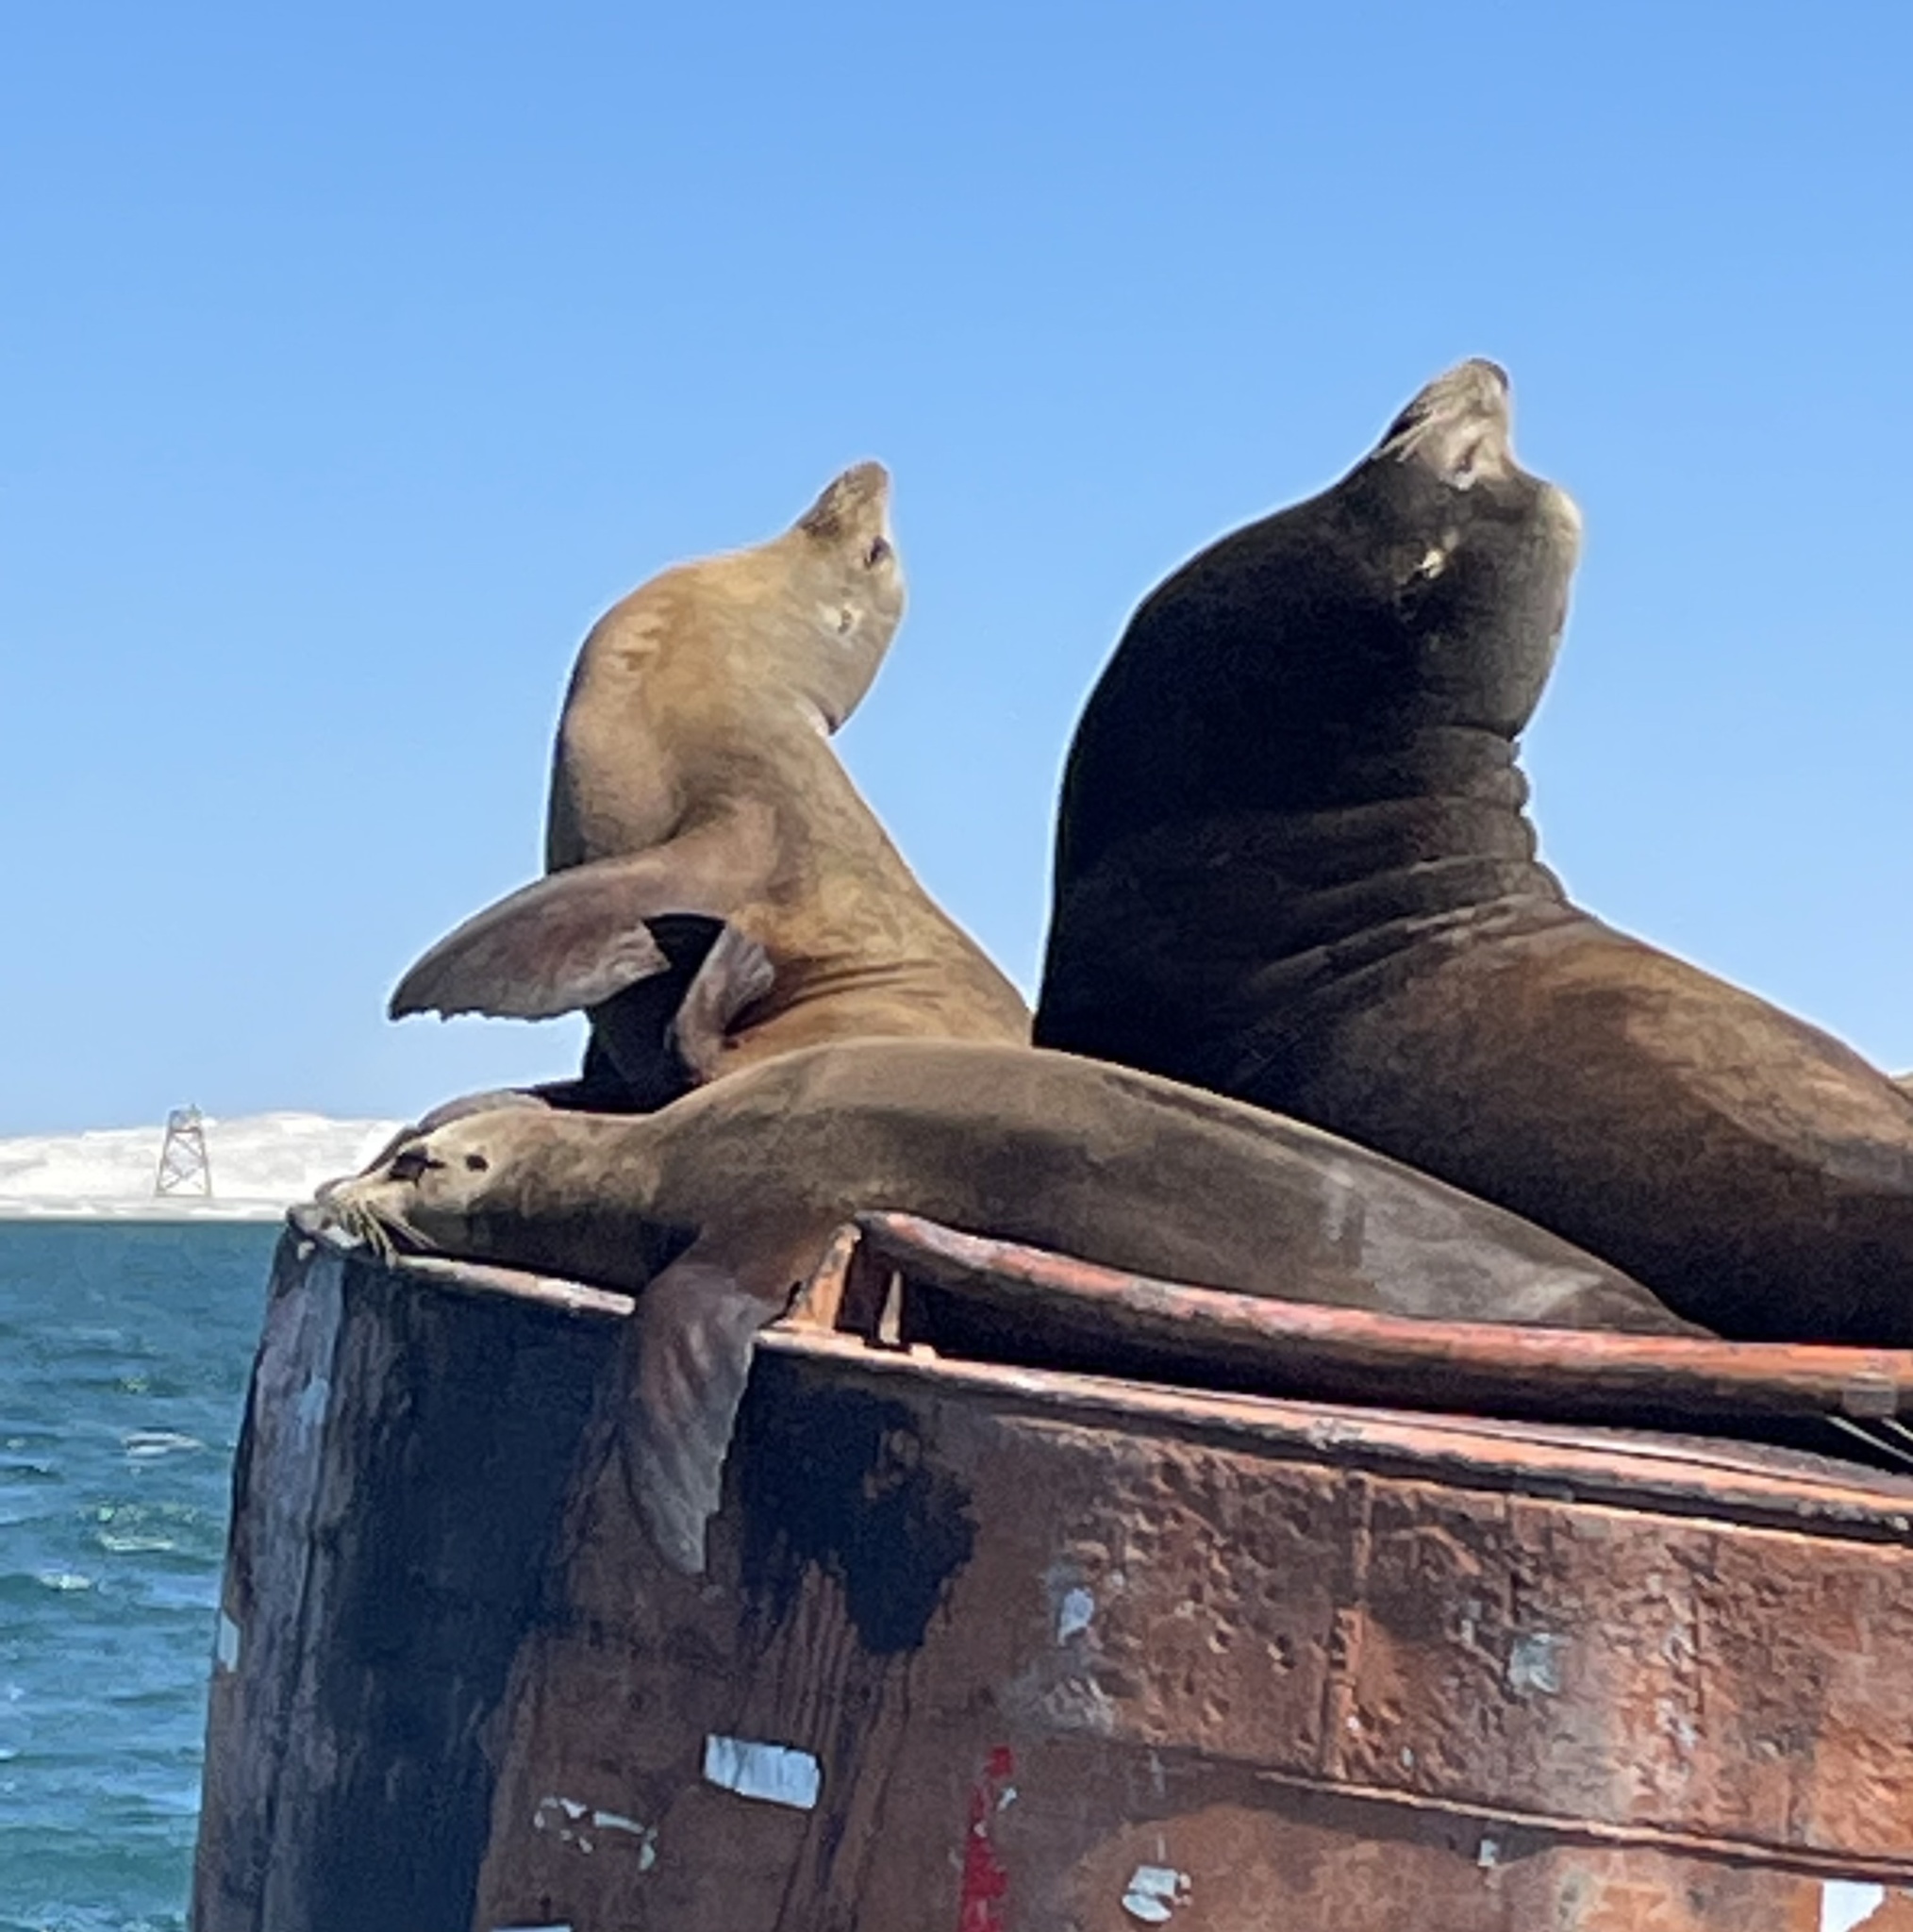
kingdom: Animalia
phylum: Chordata
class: Mammalia
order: Carnivora
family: Otariidae
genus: Zalophus
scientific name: Zalophus californianus
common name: California sea lion
